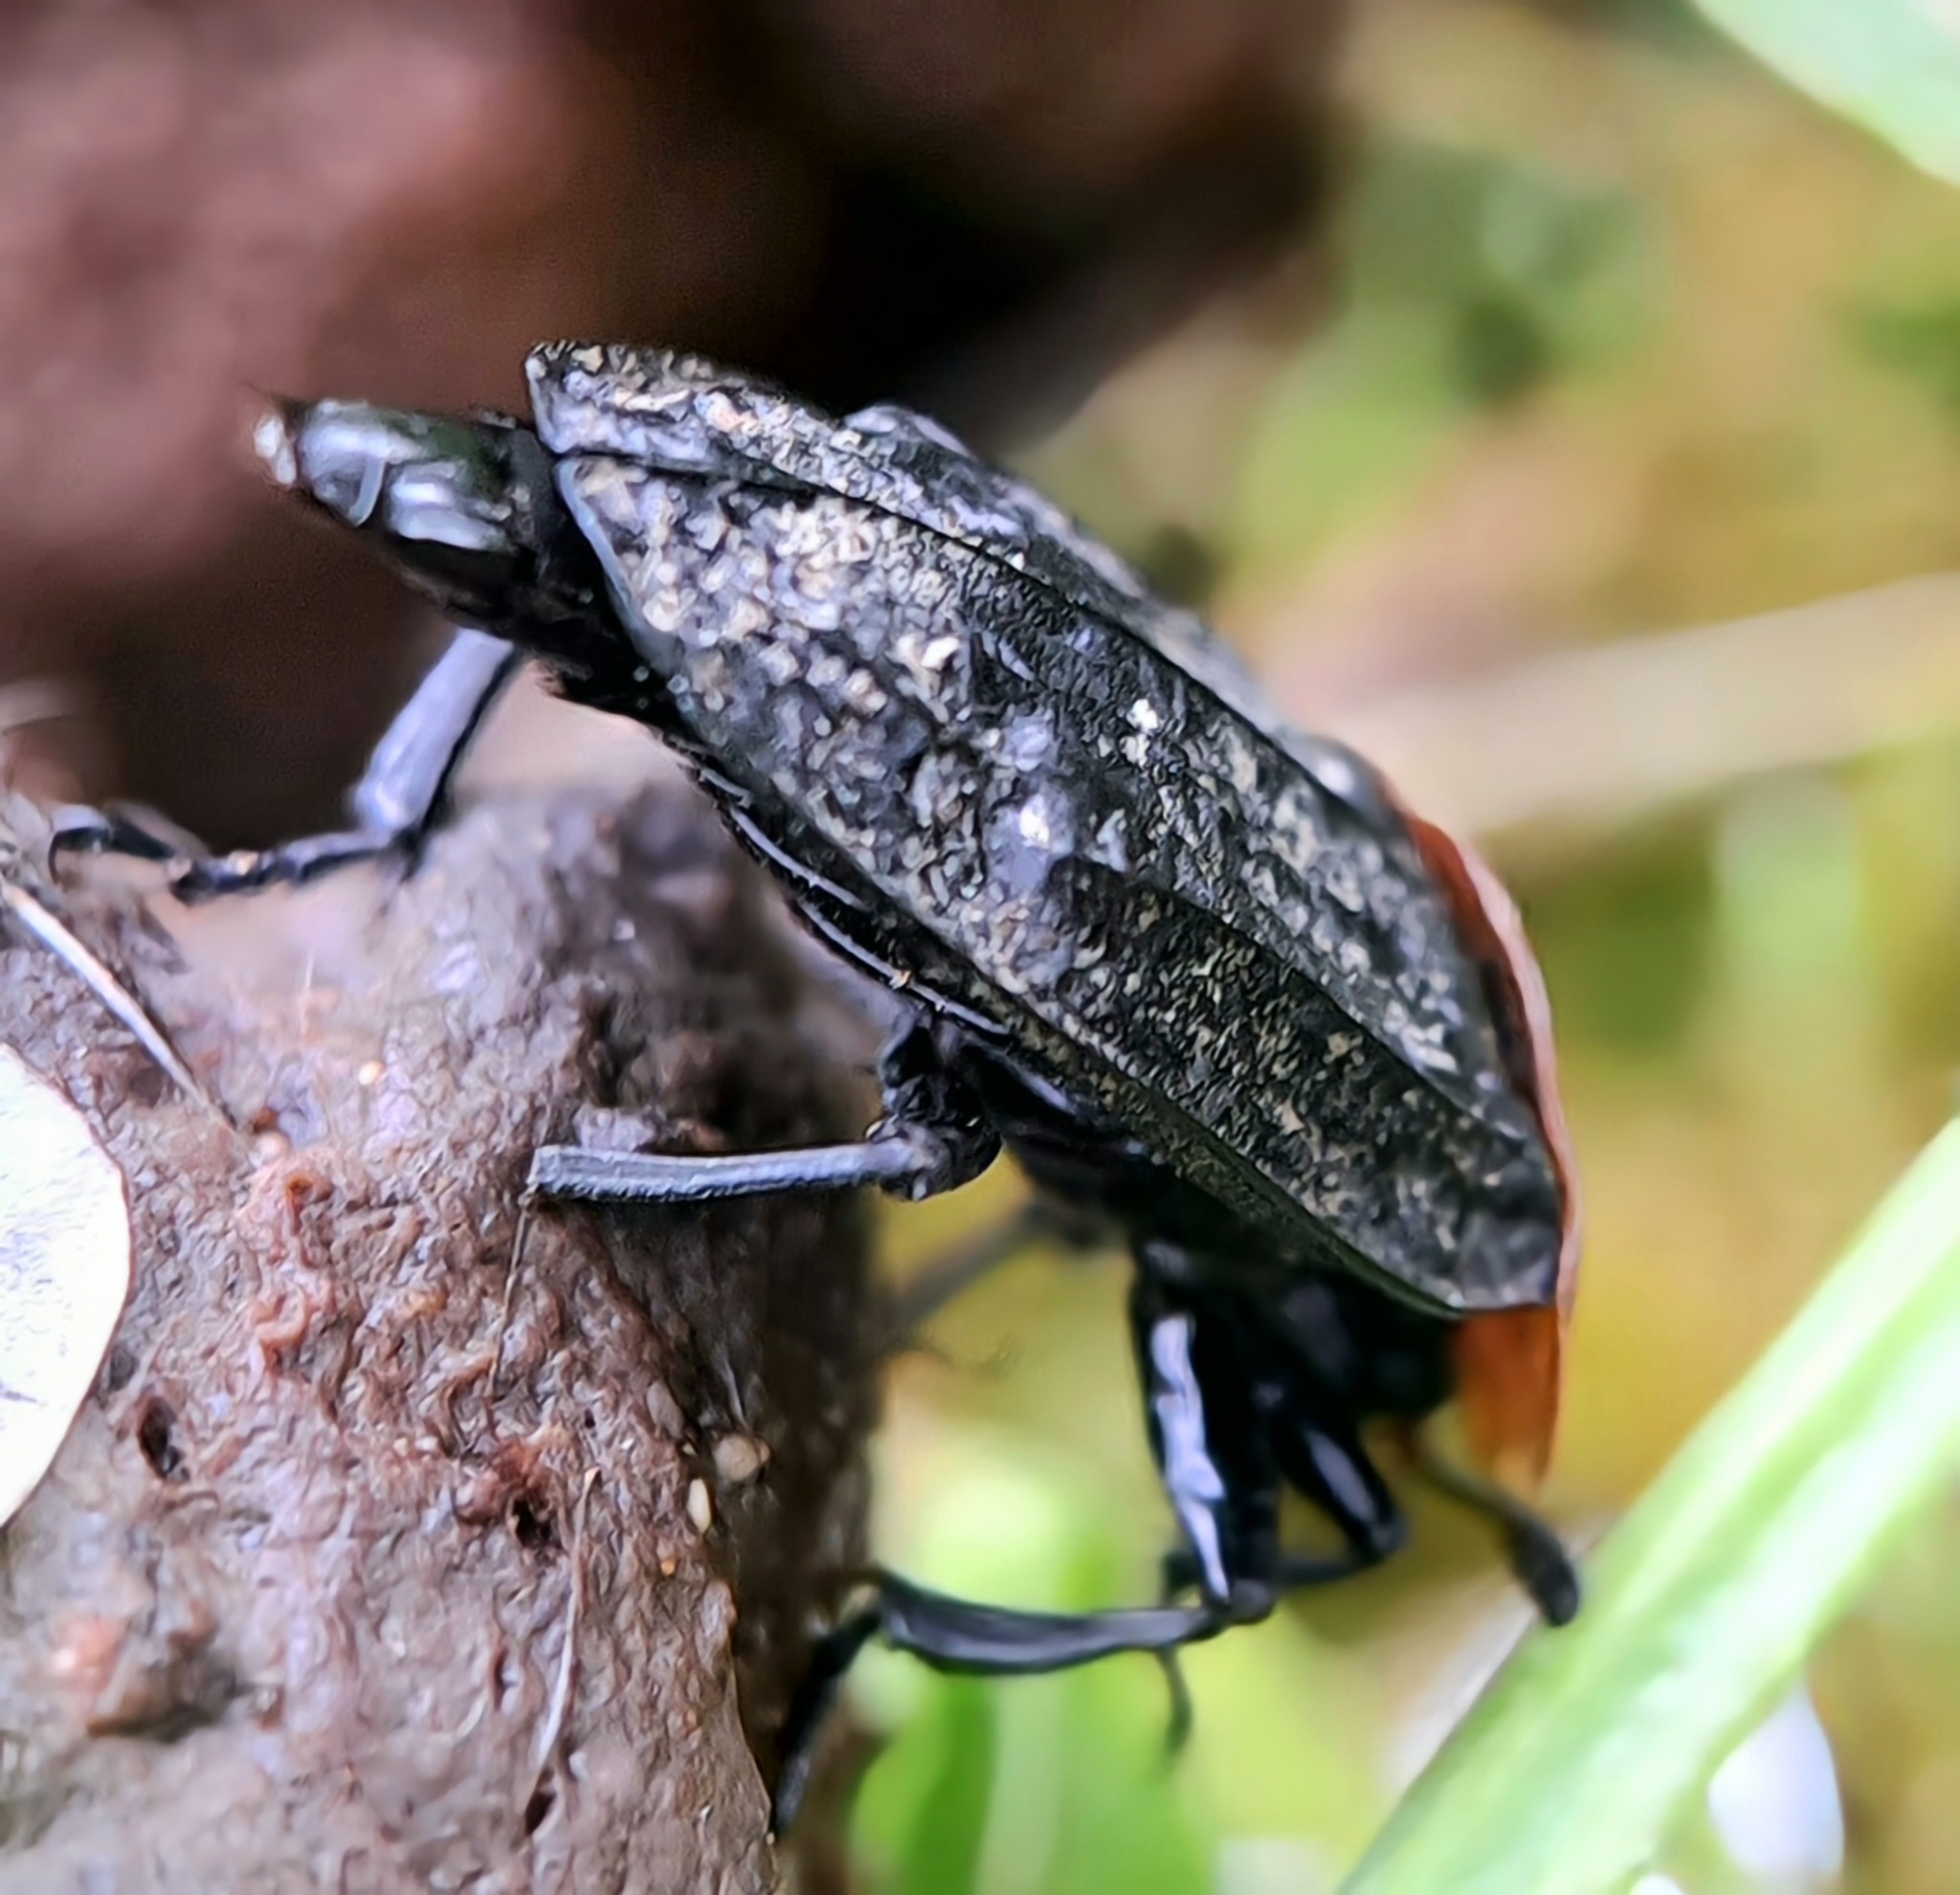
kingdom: Animalia
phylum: Arthropoda
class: Insecta
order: Coleoptera
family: Staphylinidae
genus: Oiceoptoma
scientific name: Oiceoptoma thoracicum
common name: Red-breasted carrion beetle
